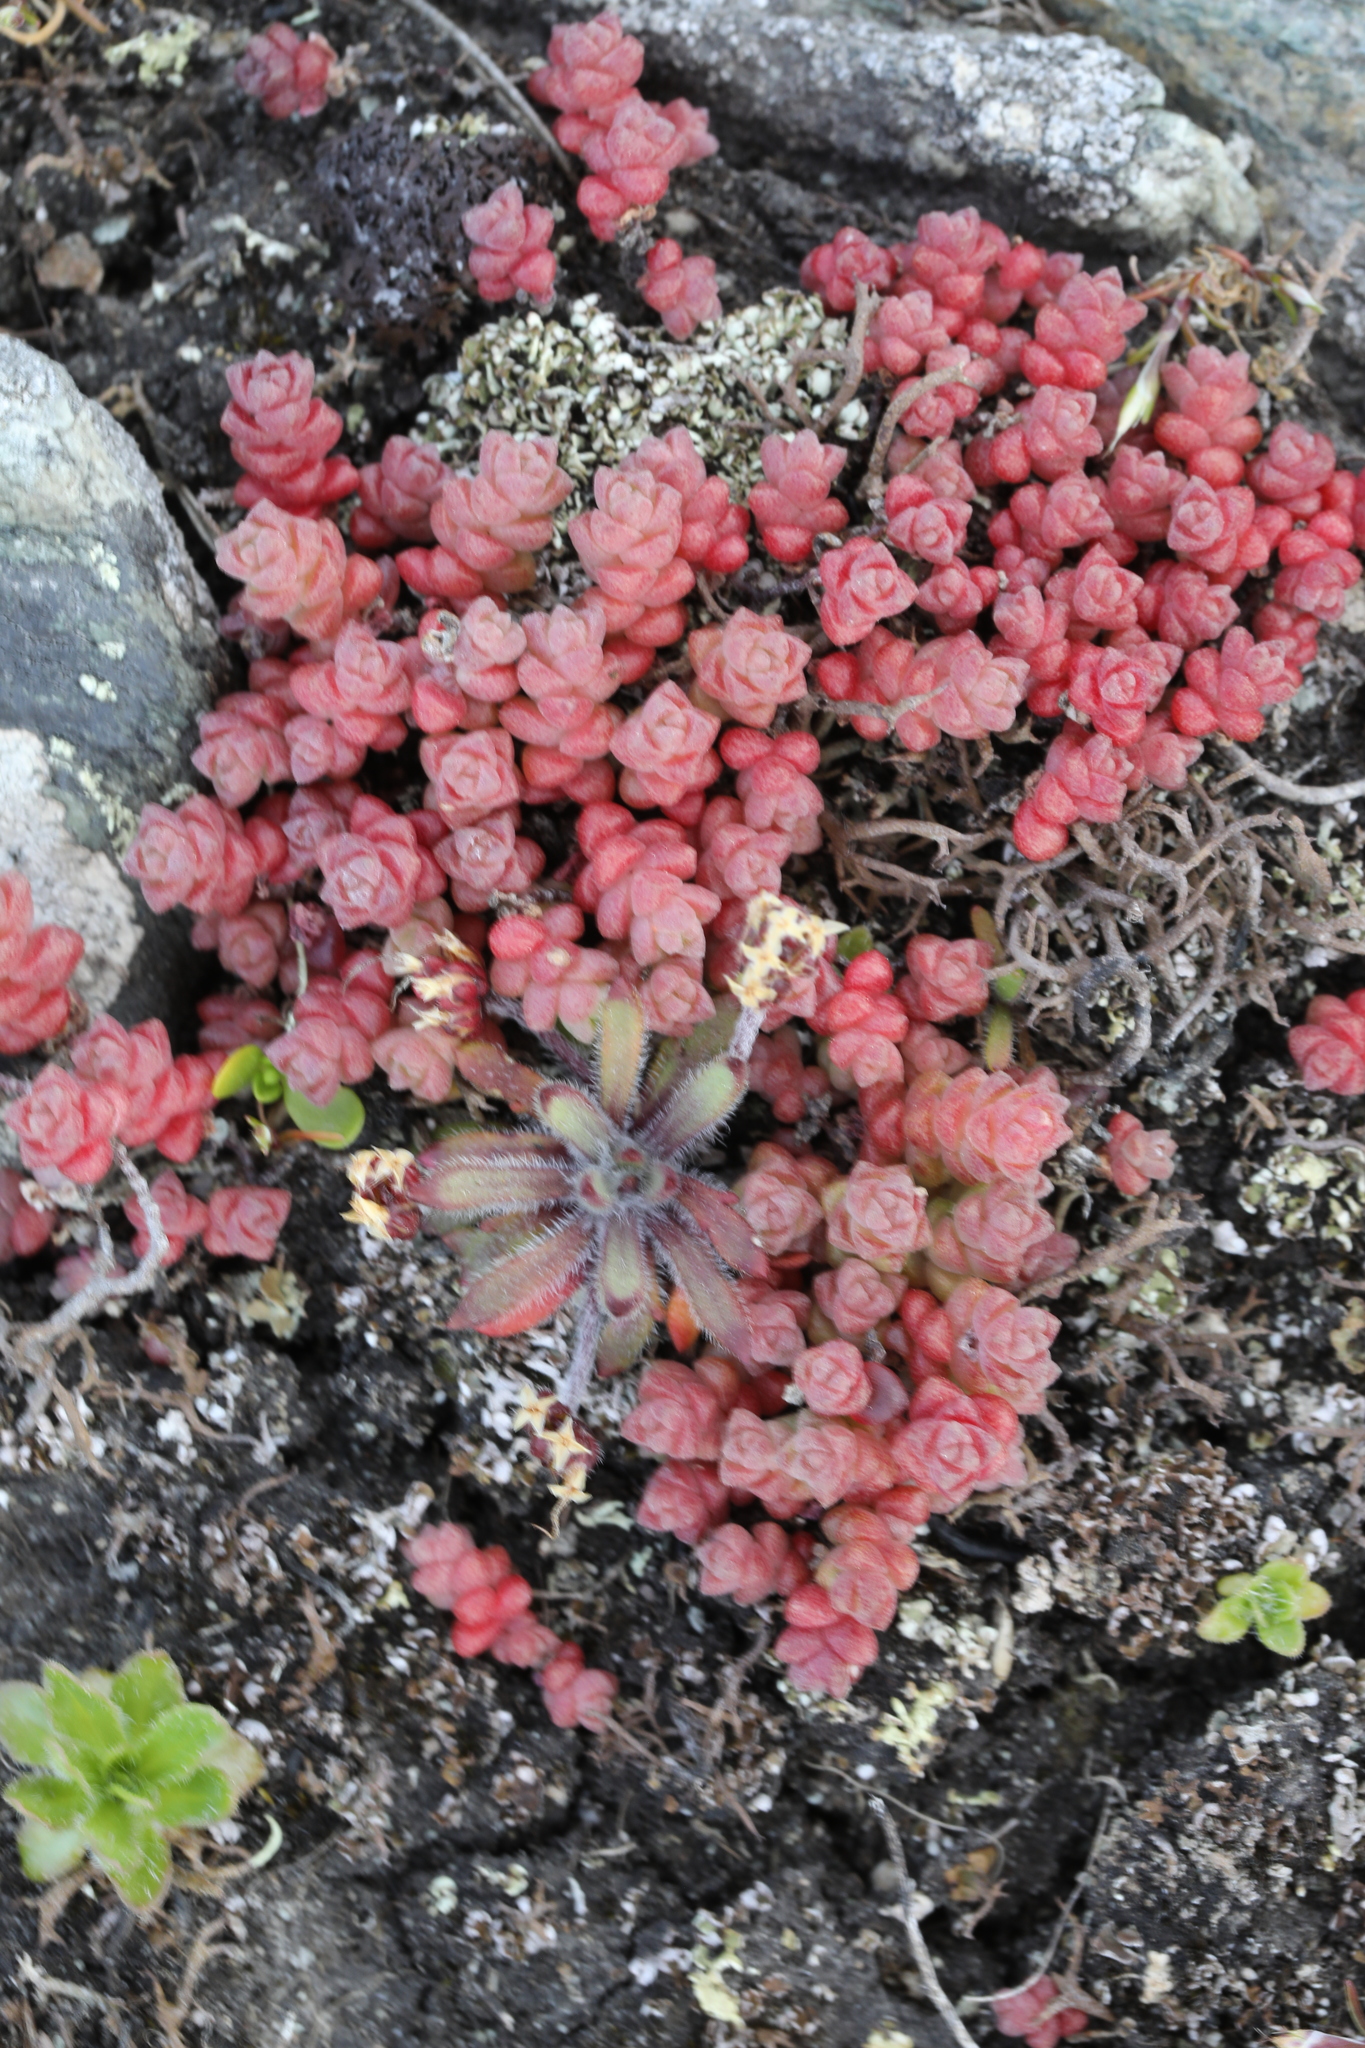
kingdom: Plantae
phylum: Tracheophyta
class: Magnoliopsida
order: Saxifragales
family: Crassulaceae
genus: Sedum
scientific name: Sedum anglicum
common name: English stonecrop
